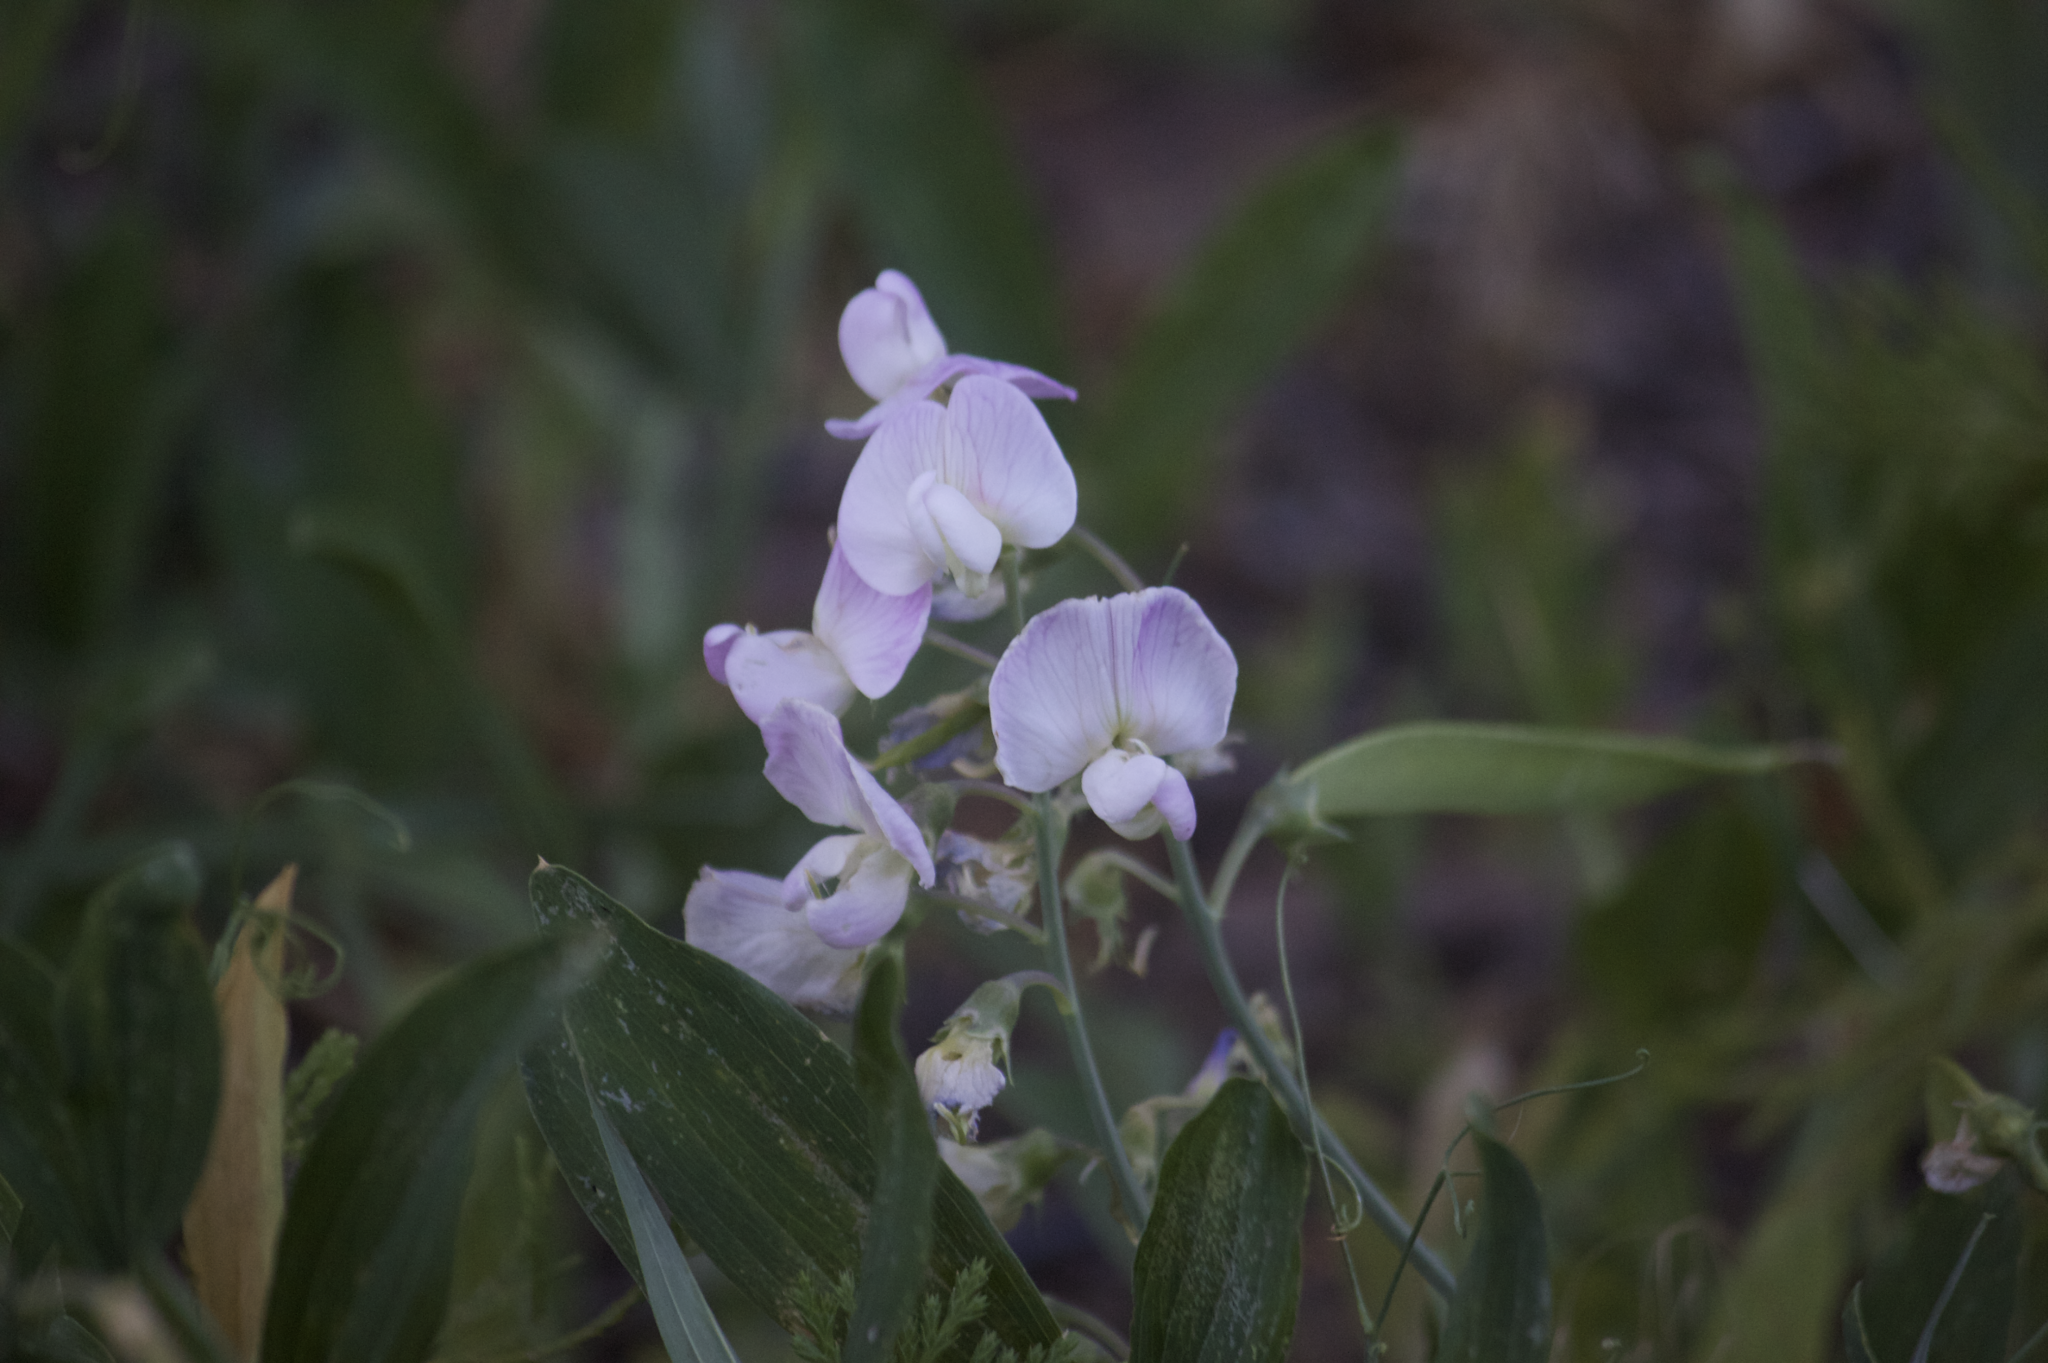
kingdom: Plantae
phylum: Tracheophyta
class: Magnoliopsida
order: Fabales
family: Fabaceae
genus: Lathyrus
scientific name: Lathyrus latifolius
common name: Perennial pea
